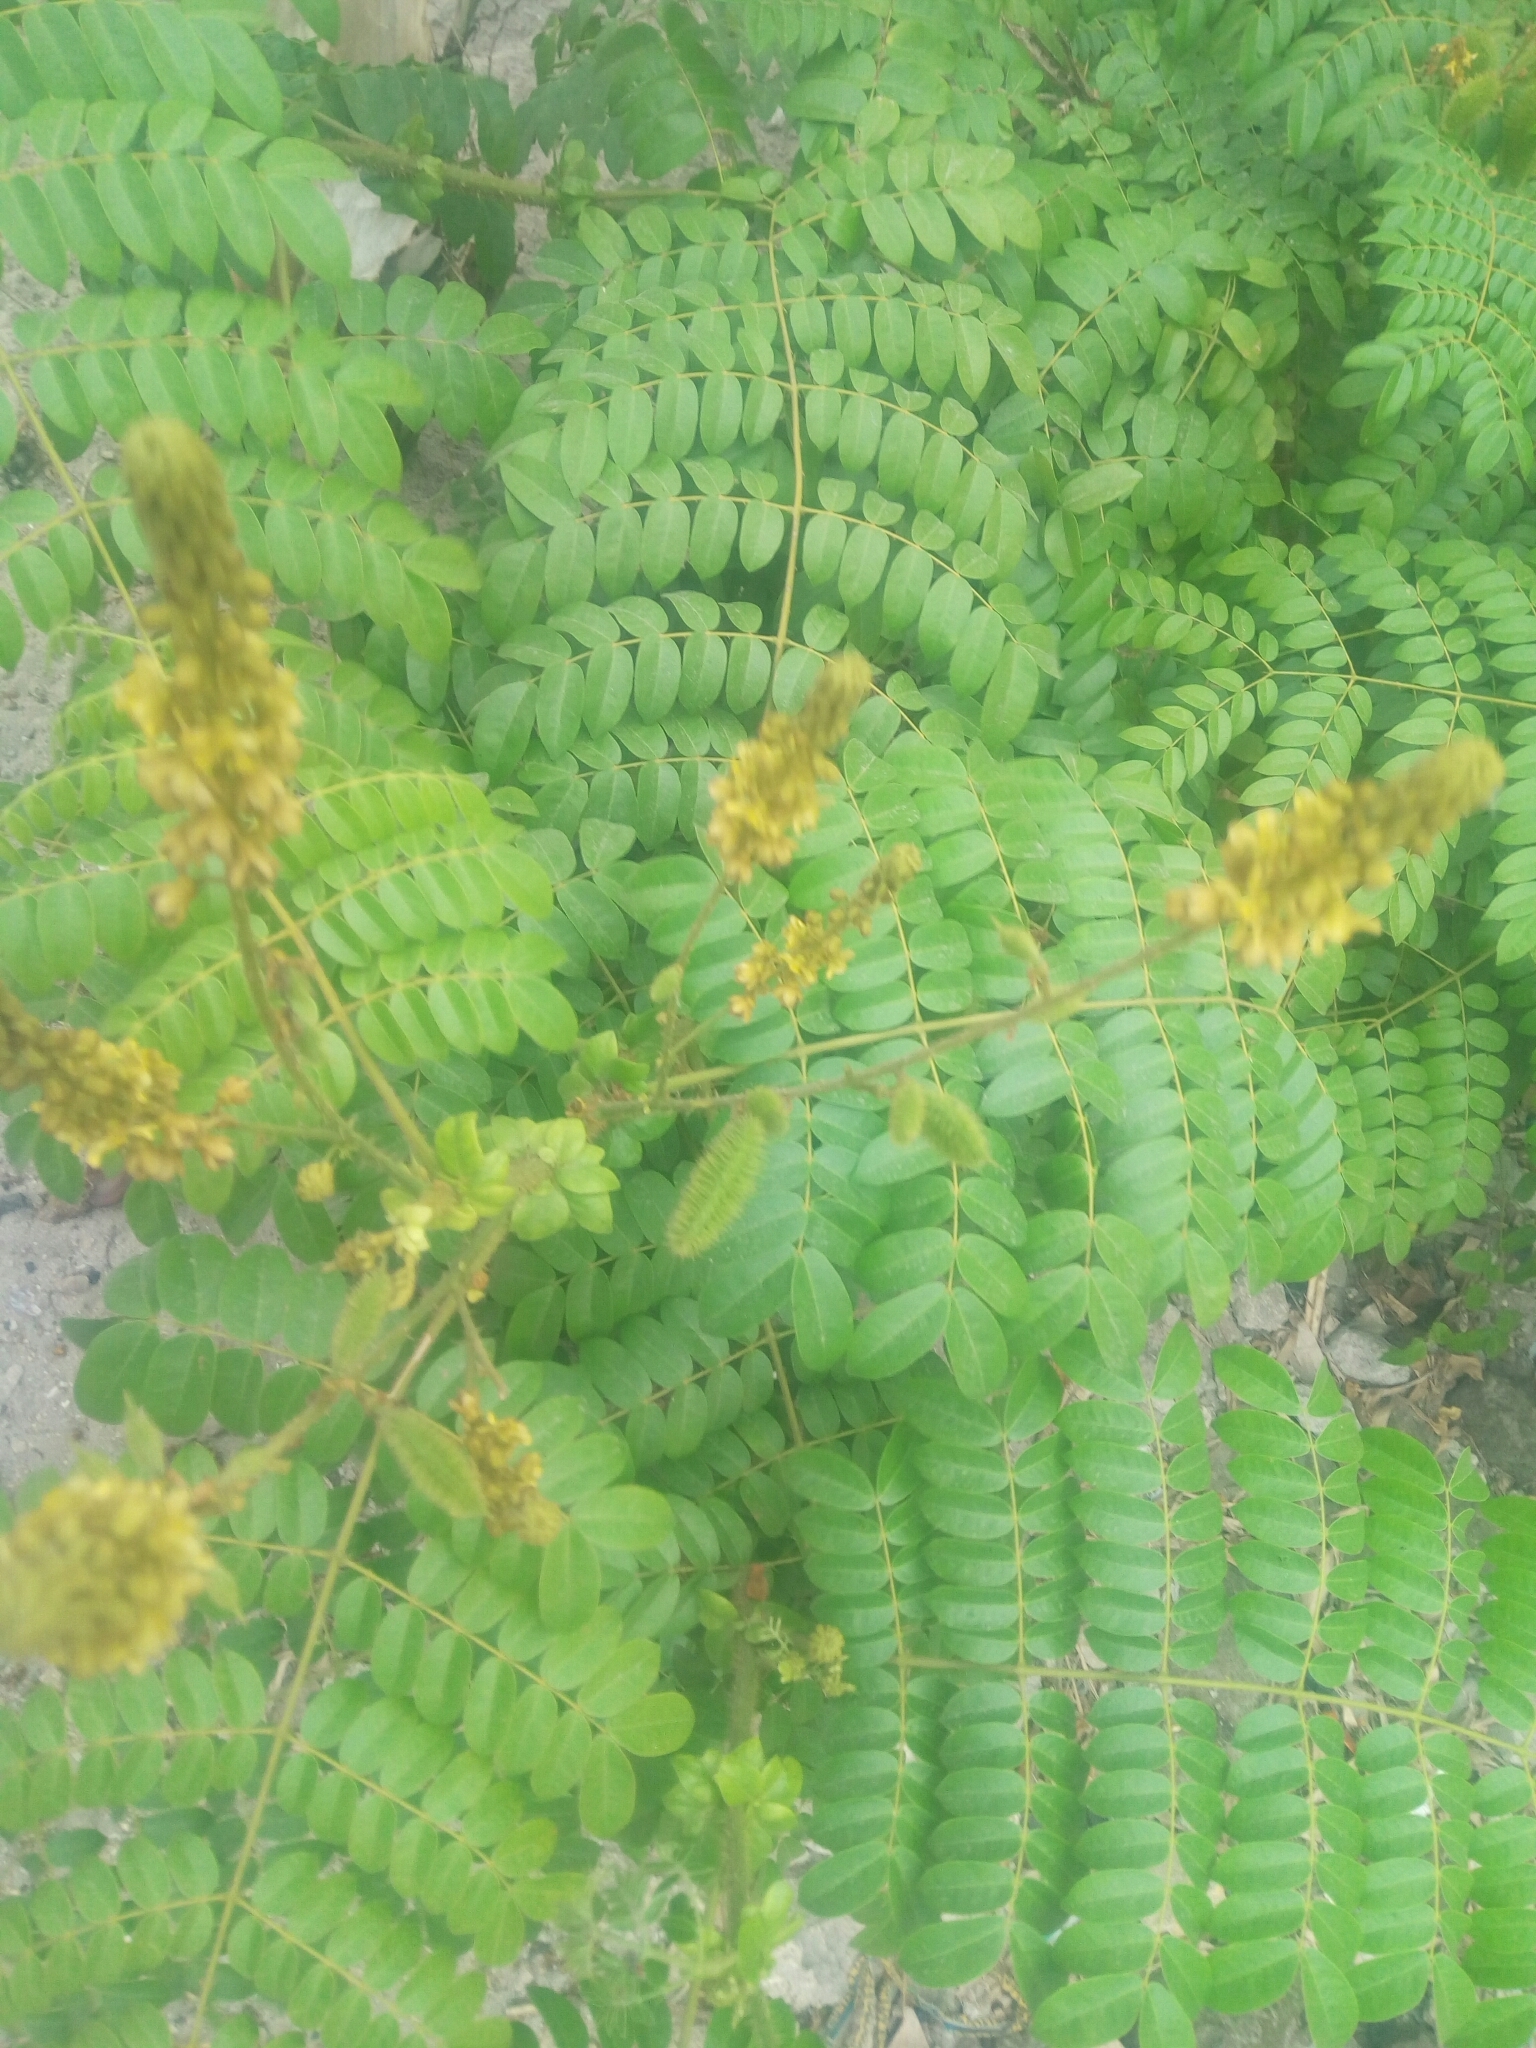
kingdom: Plantae
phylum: Tracheophyta
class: Magnoliopsida
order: Fabales
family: Fabaceae
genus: Guilandina
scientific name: Guilandina bonduc
